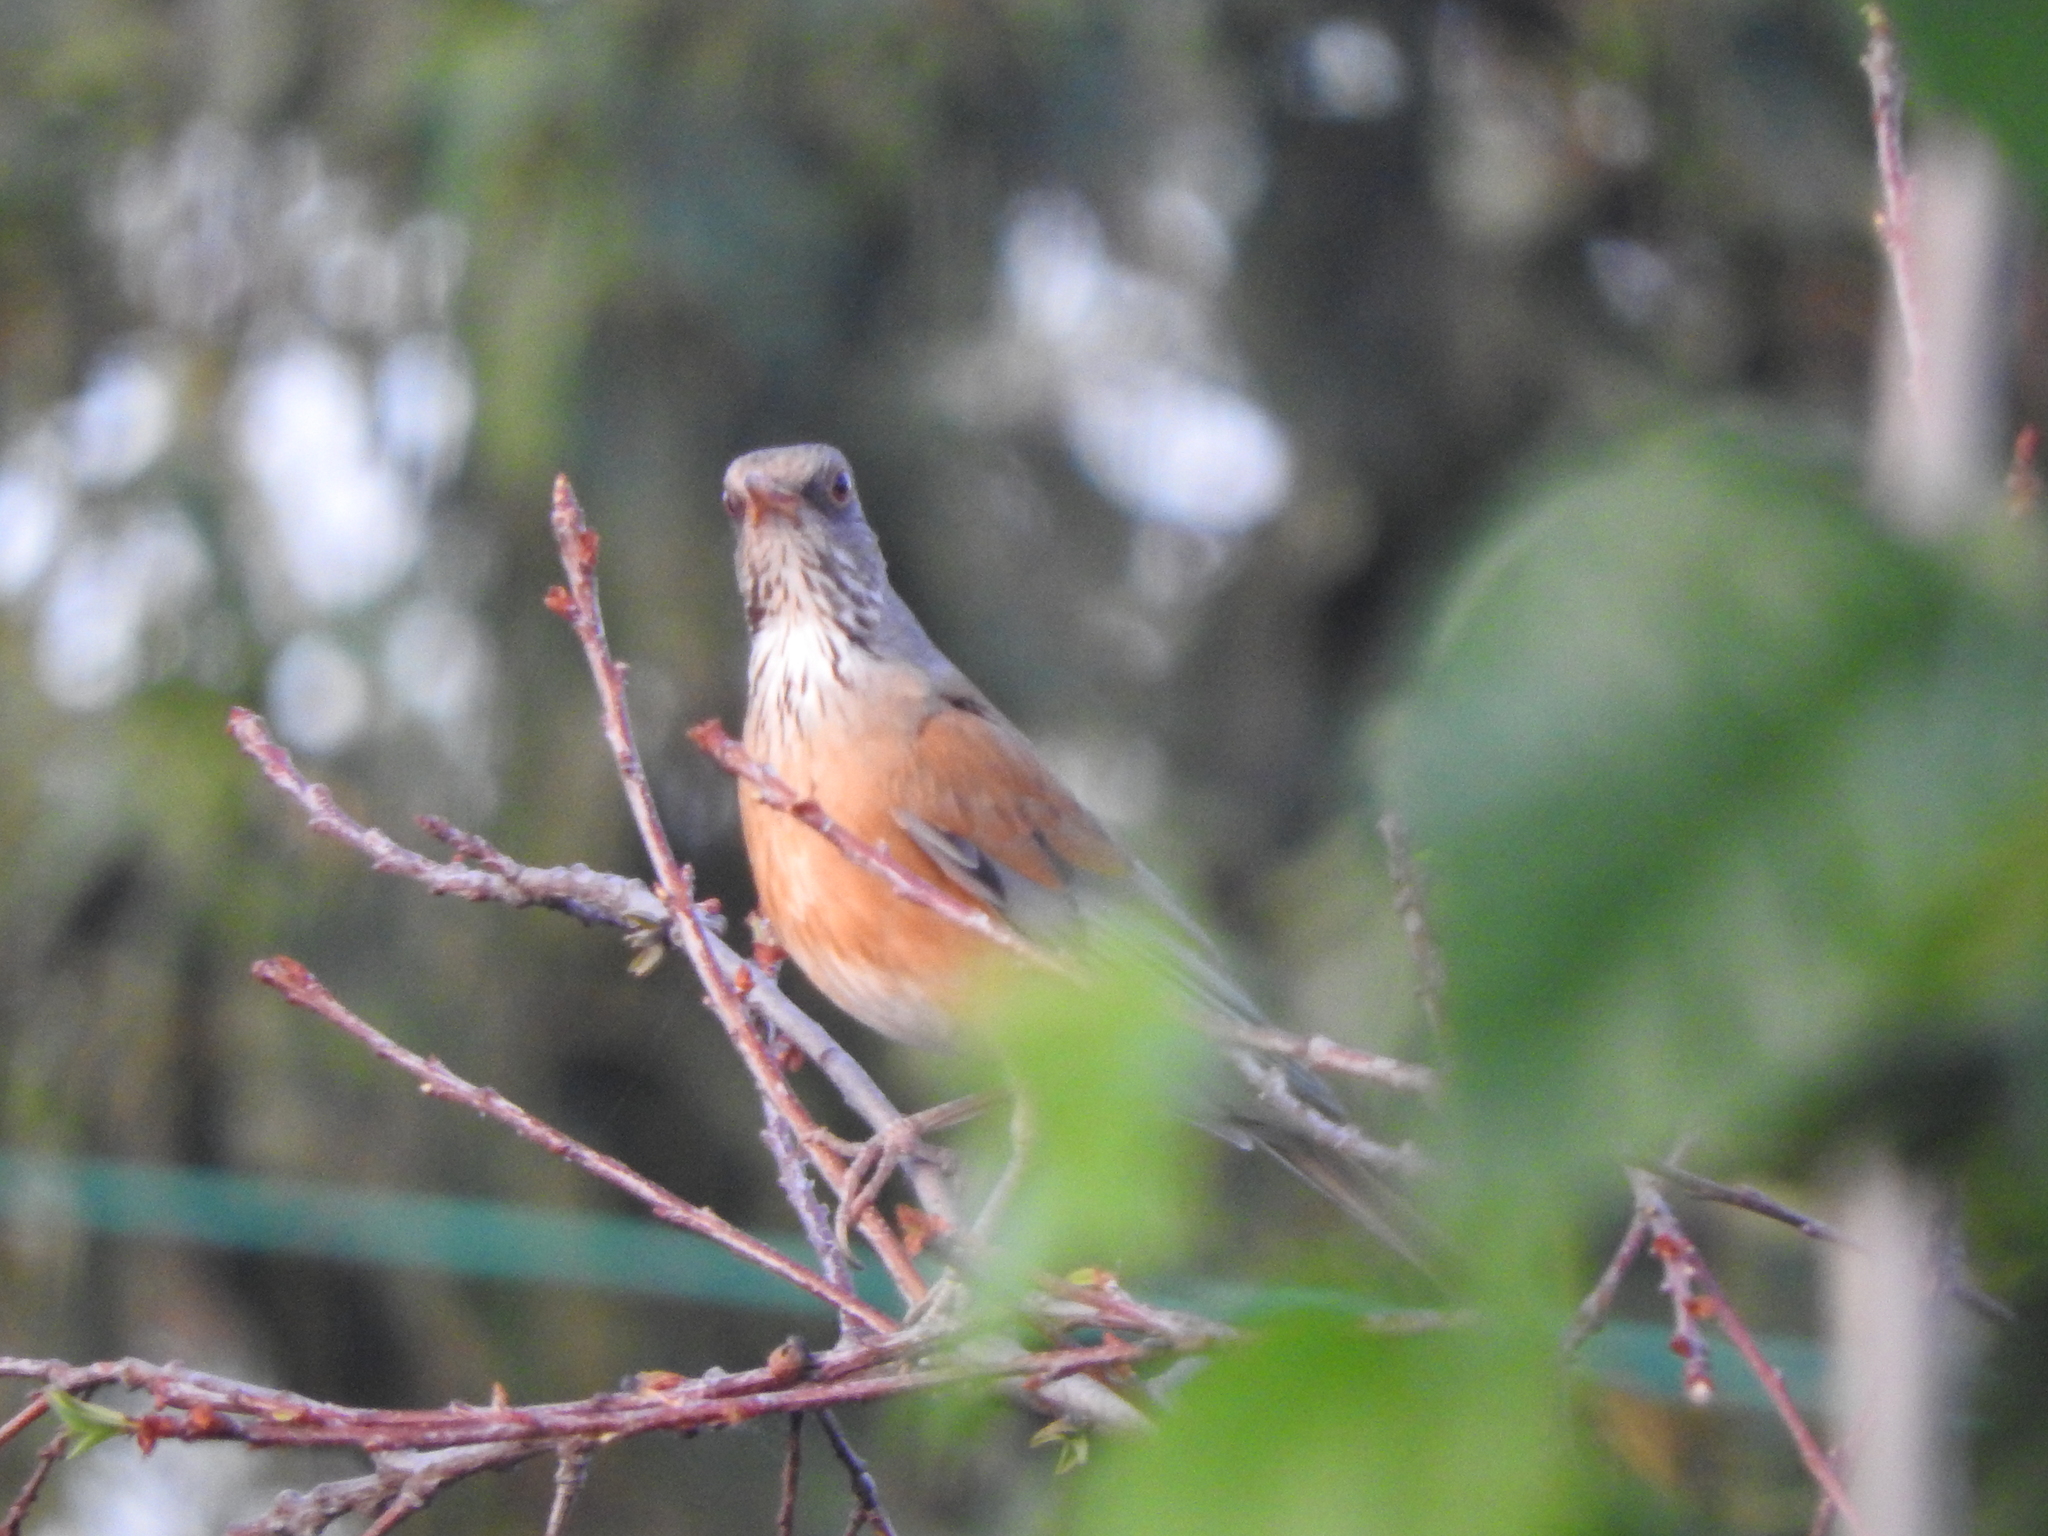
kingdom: Animalia
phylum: Chordata
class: Aves
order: Passeriformes
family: Turdidae
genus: Turdus
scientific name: Turdus rufopalliatus
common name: Rufous-backed robin
